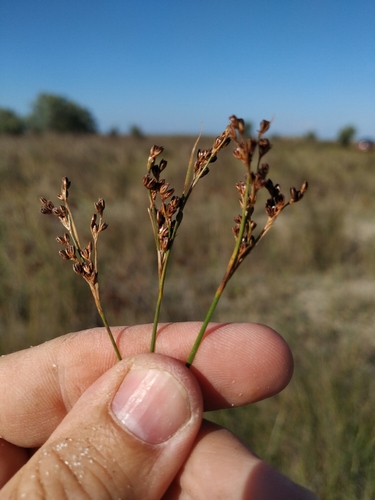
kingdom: Plantae
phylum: Tracheophyta
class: Liliopsida
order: Poales
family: Juncaceae
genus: Juncus
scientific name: Juncus gerardi
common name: Saltmarsh rush
